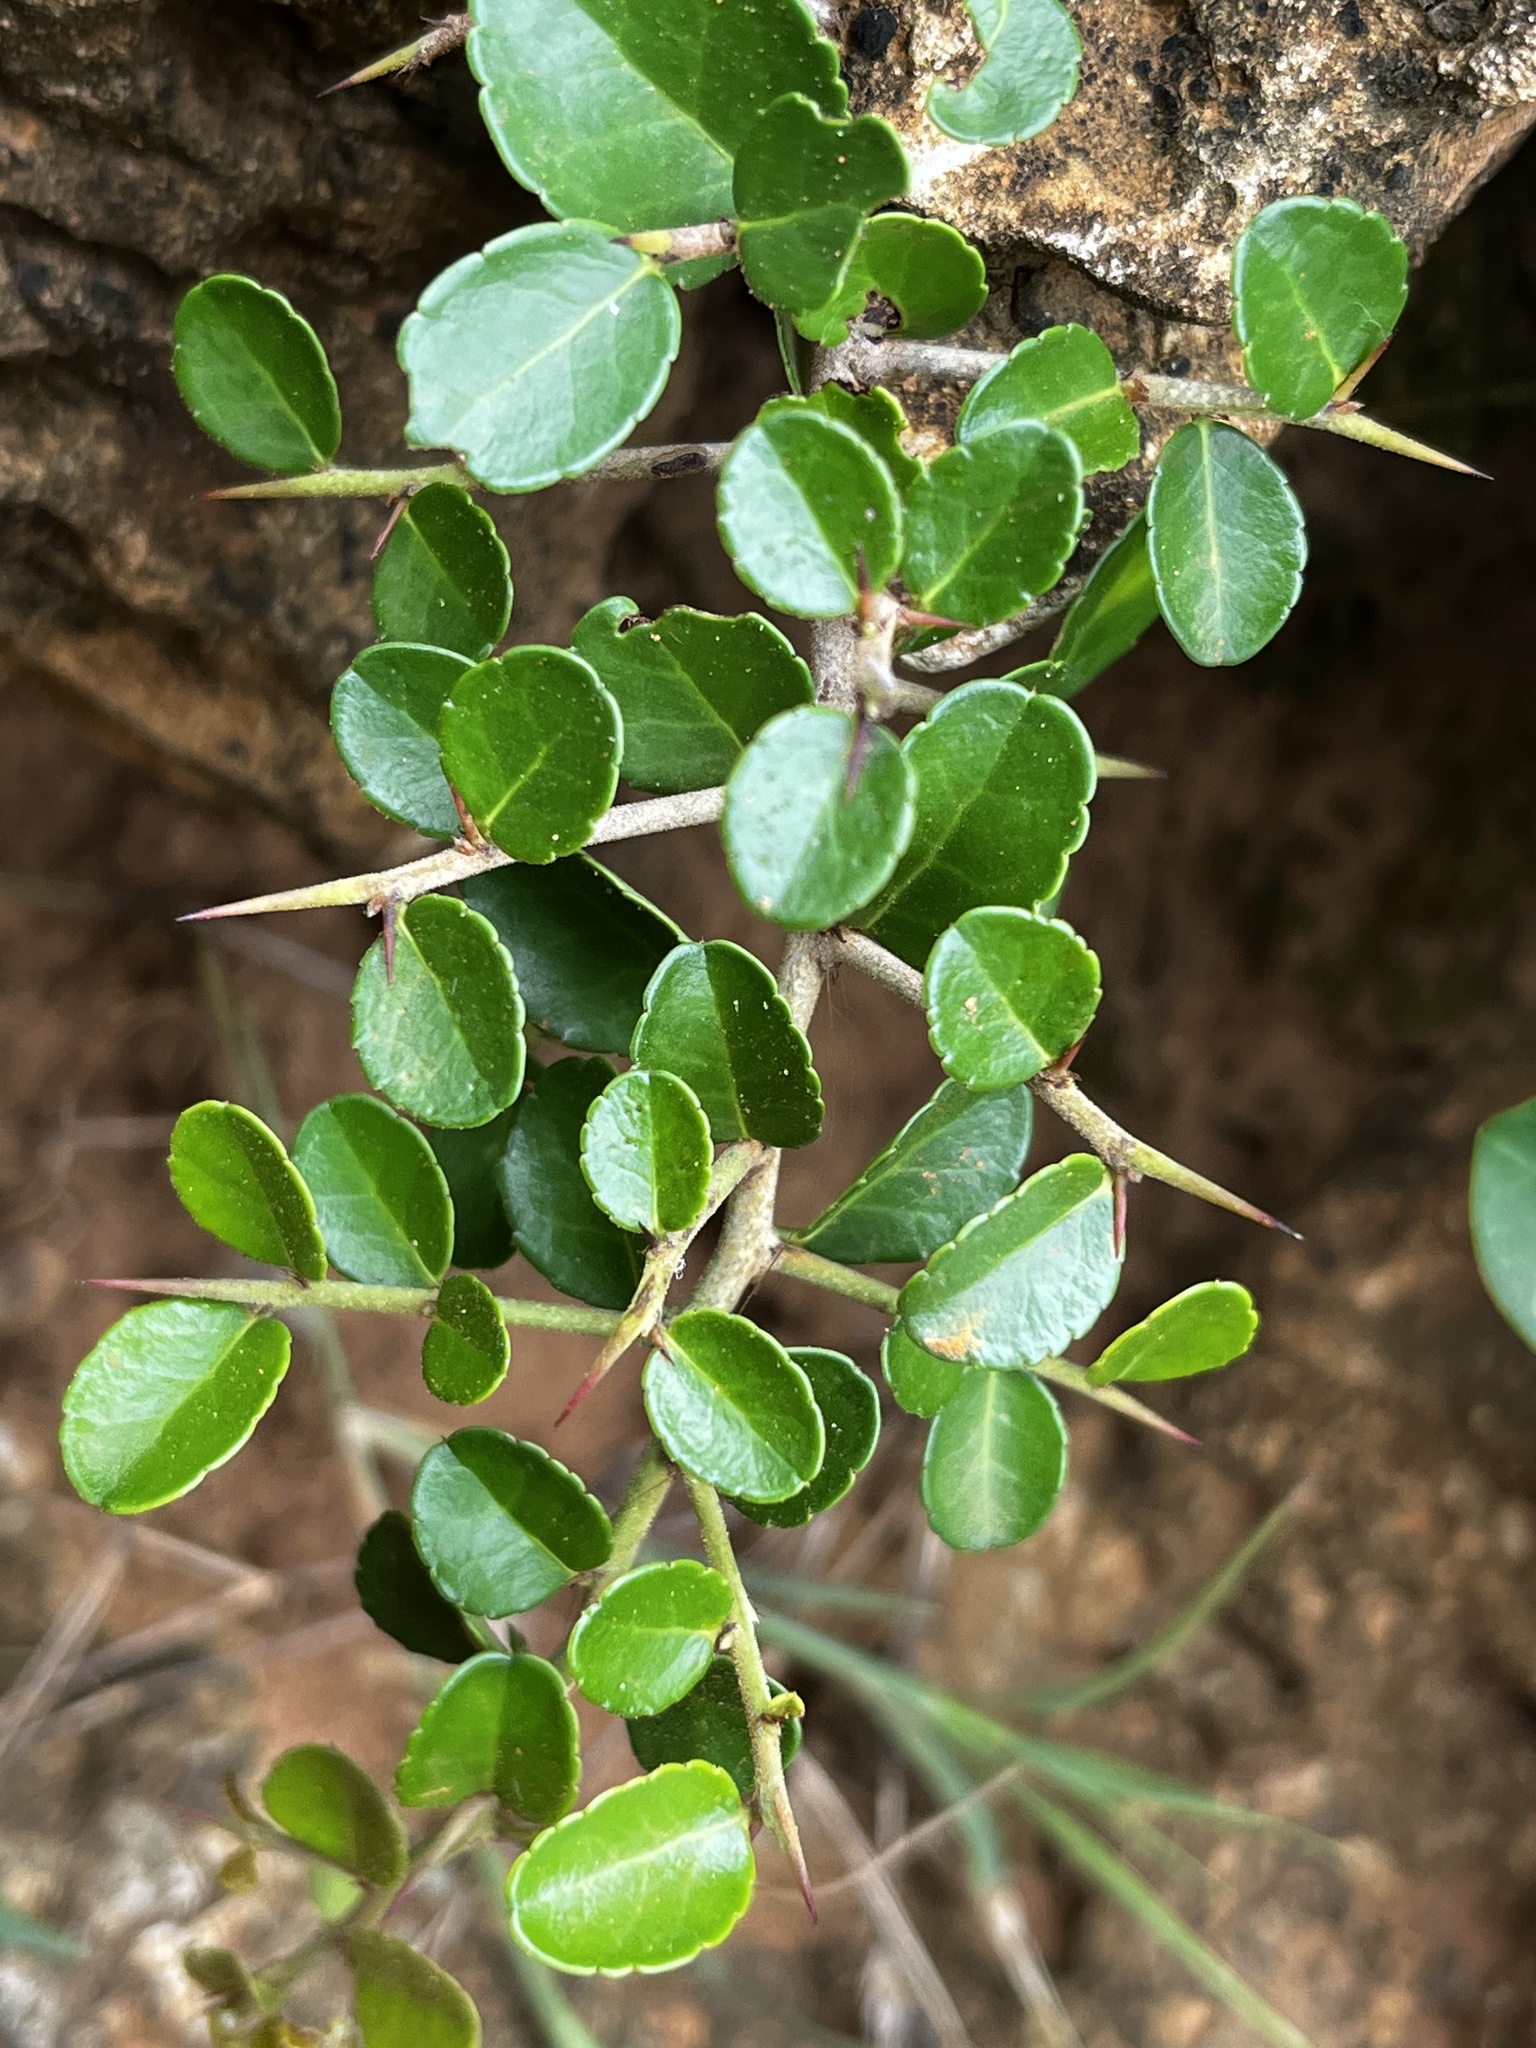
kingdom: Plantae
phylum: Tracheophyta
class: Magnoliopsida
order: Celastrales
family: Celastraceae
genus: Gymnosporia
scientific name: Gymnosporia diversifolia
